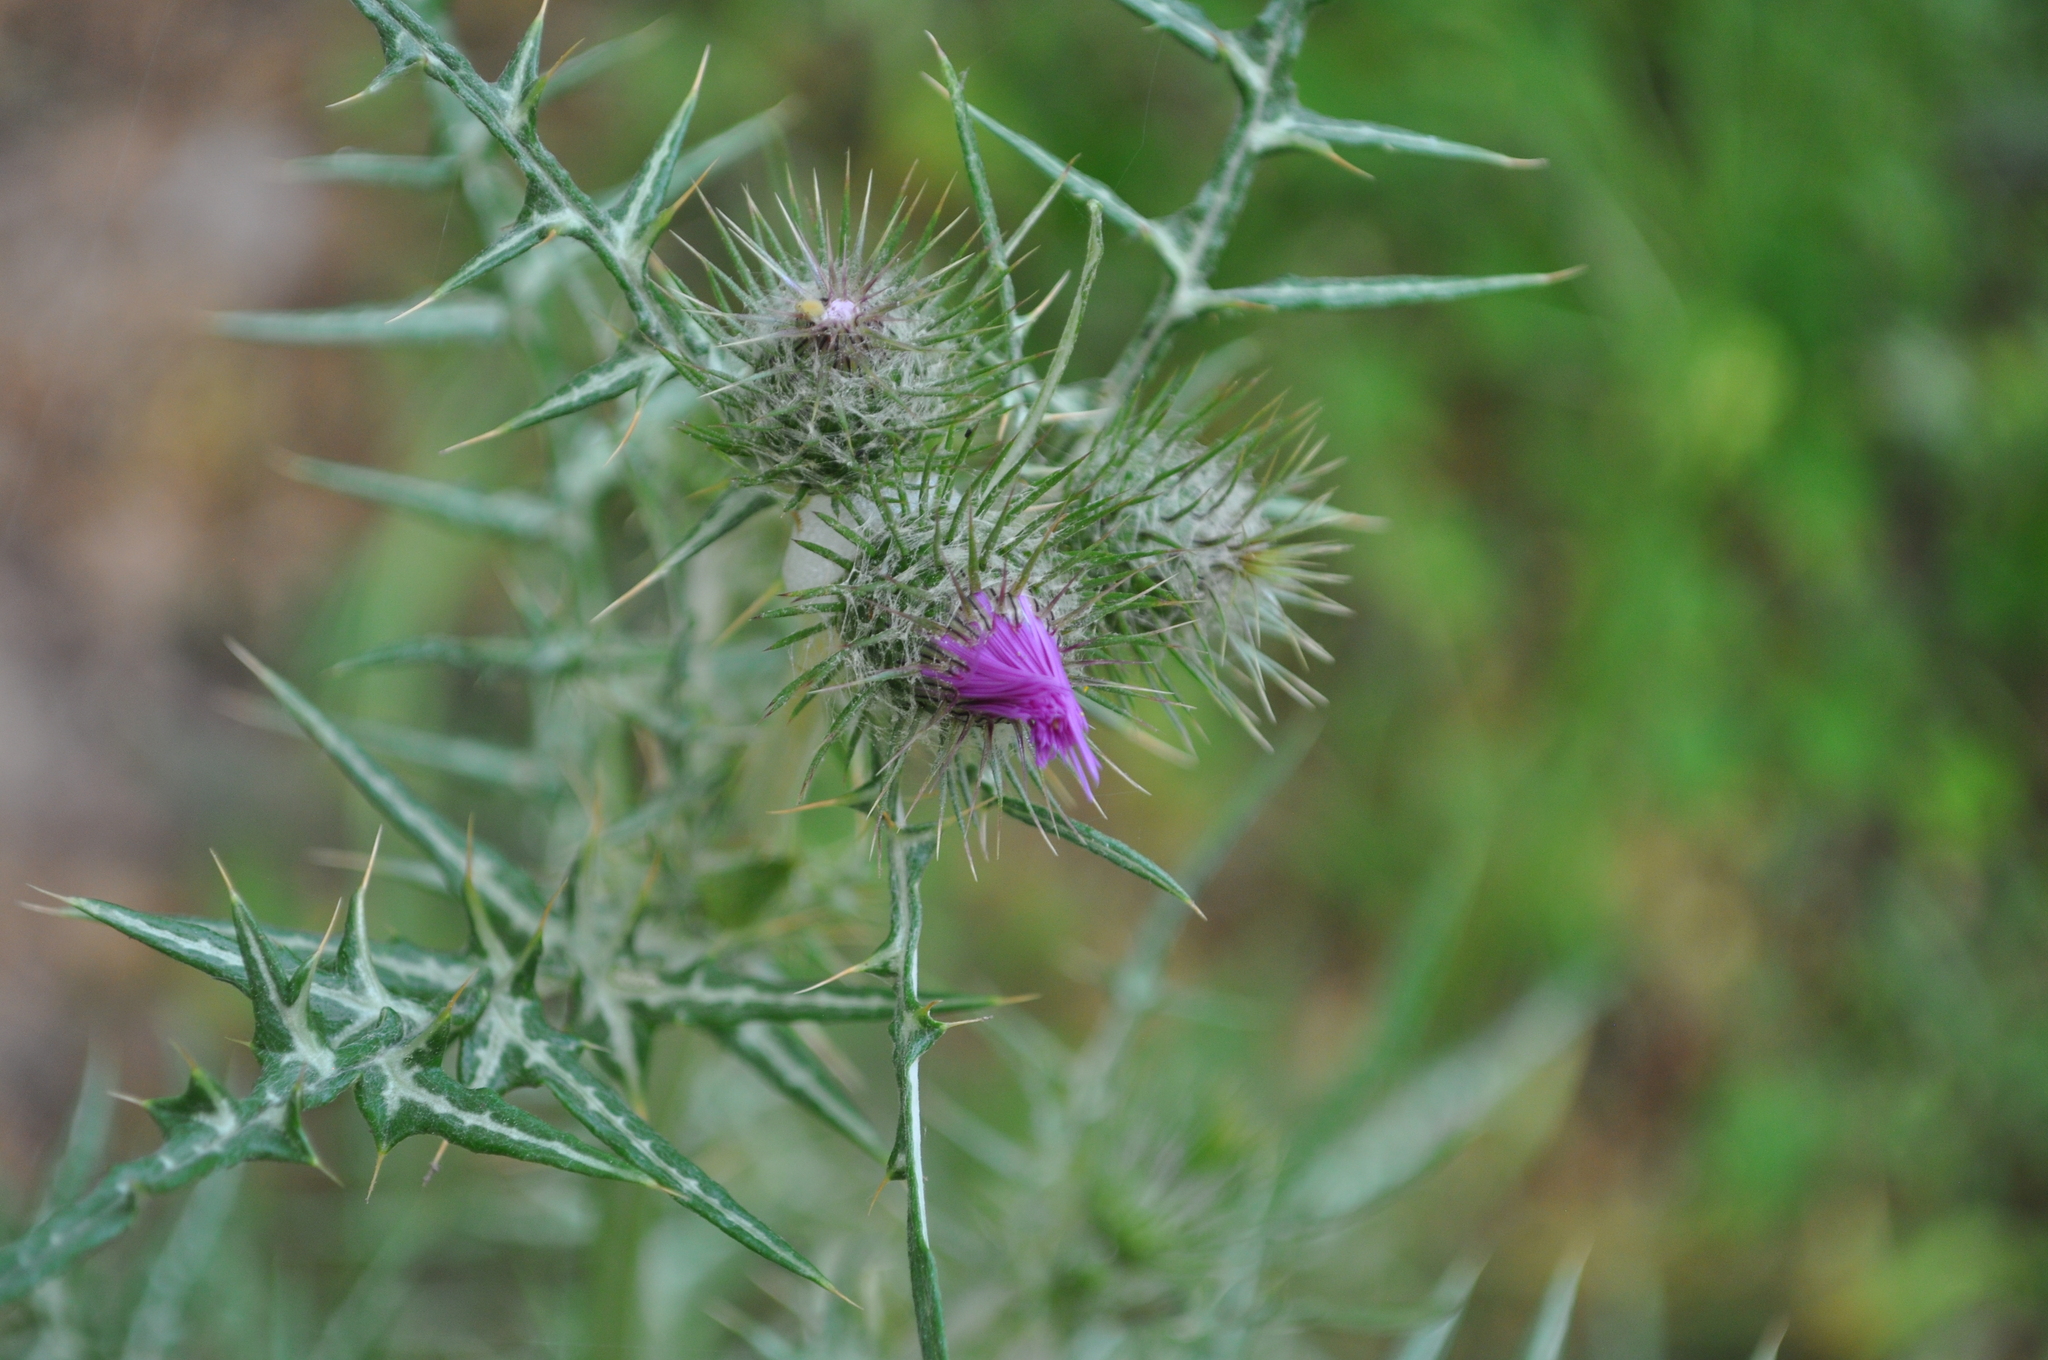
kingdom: Plantae
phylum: Tracheophyta
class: Magnoliopsida
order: Asterales
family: Asteraceae
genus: Galactites
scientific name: Galactites tomentosa
